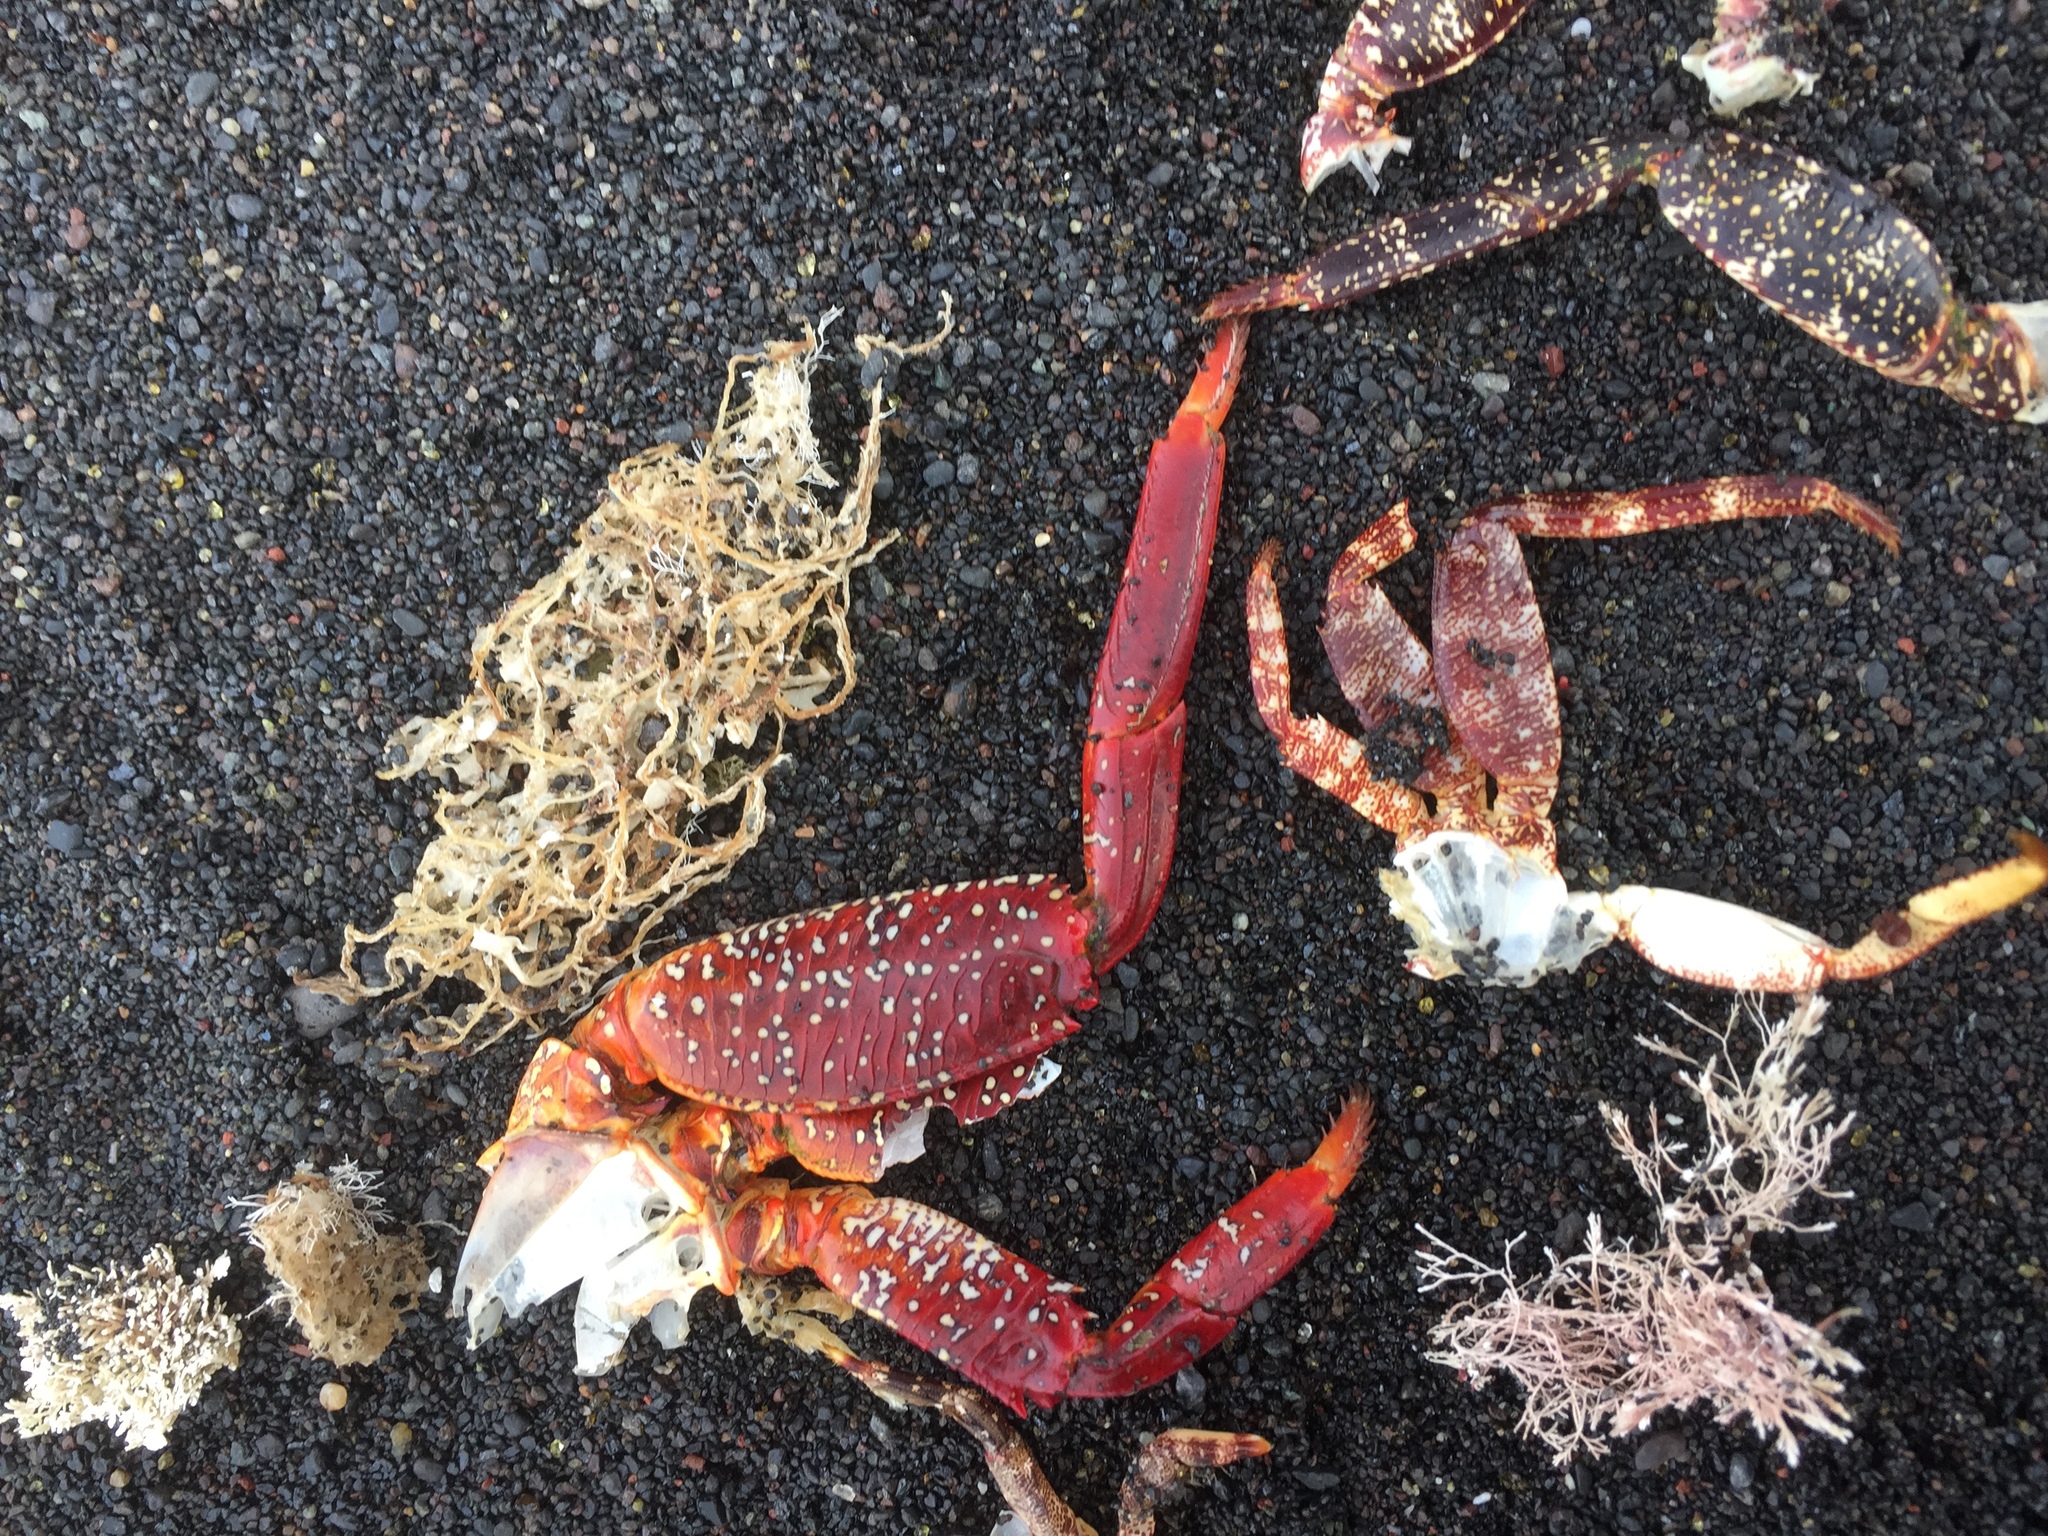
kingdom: Animalia
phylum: Arthropoda
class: Malacostraca
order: Decapoda
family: Grapsidae
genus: Grapsus
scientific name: Grapsus adscensionis
